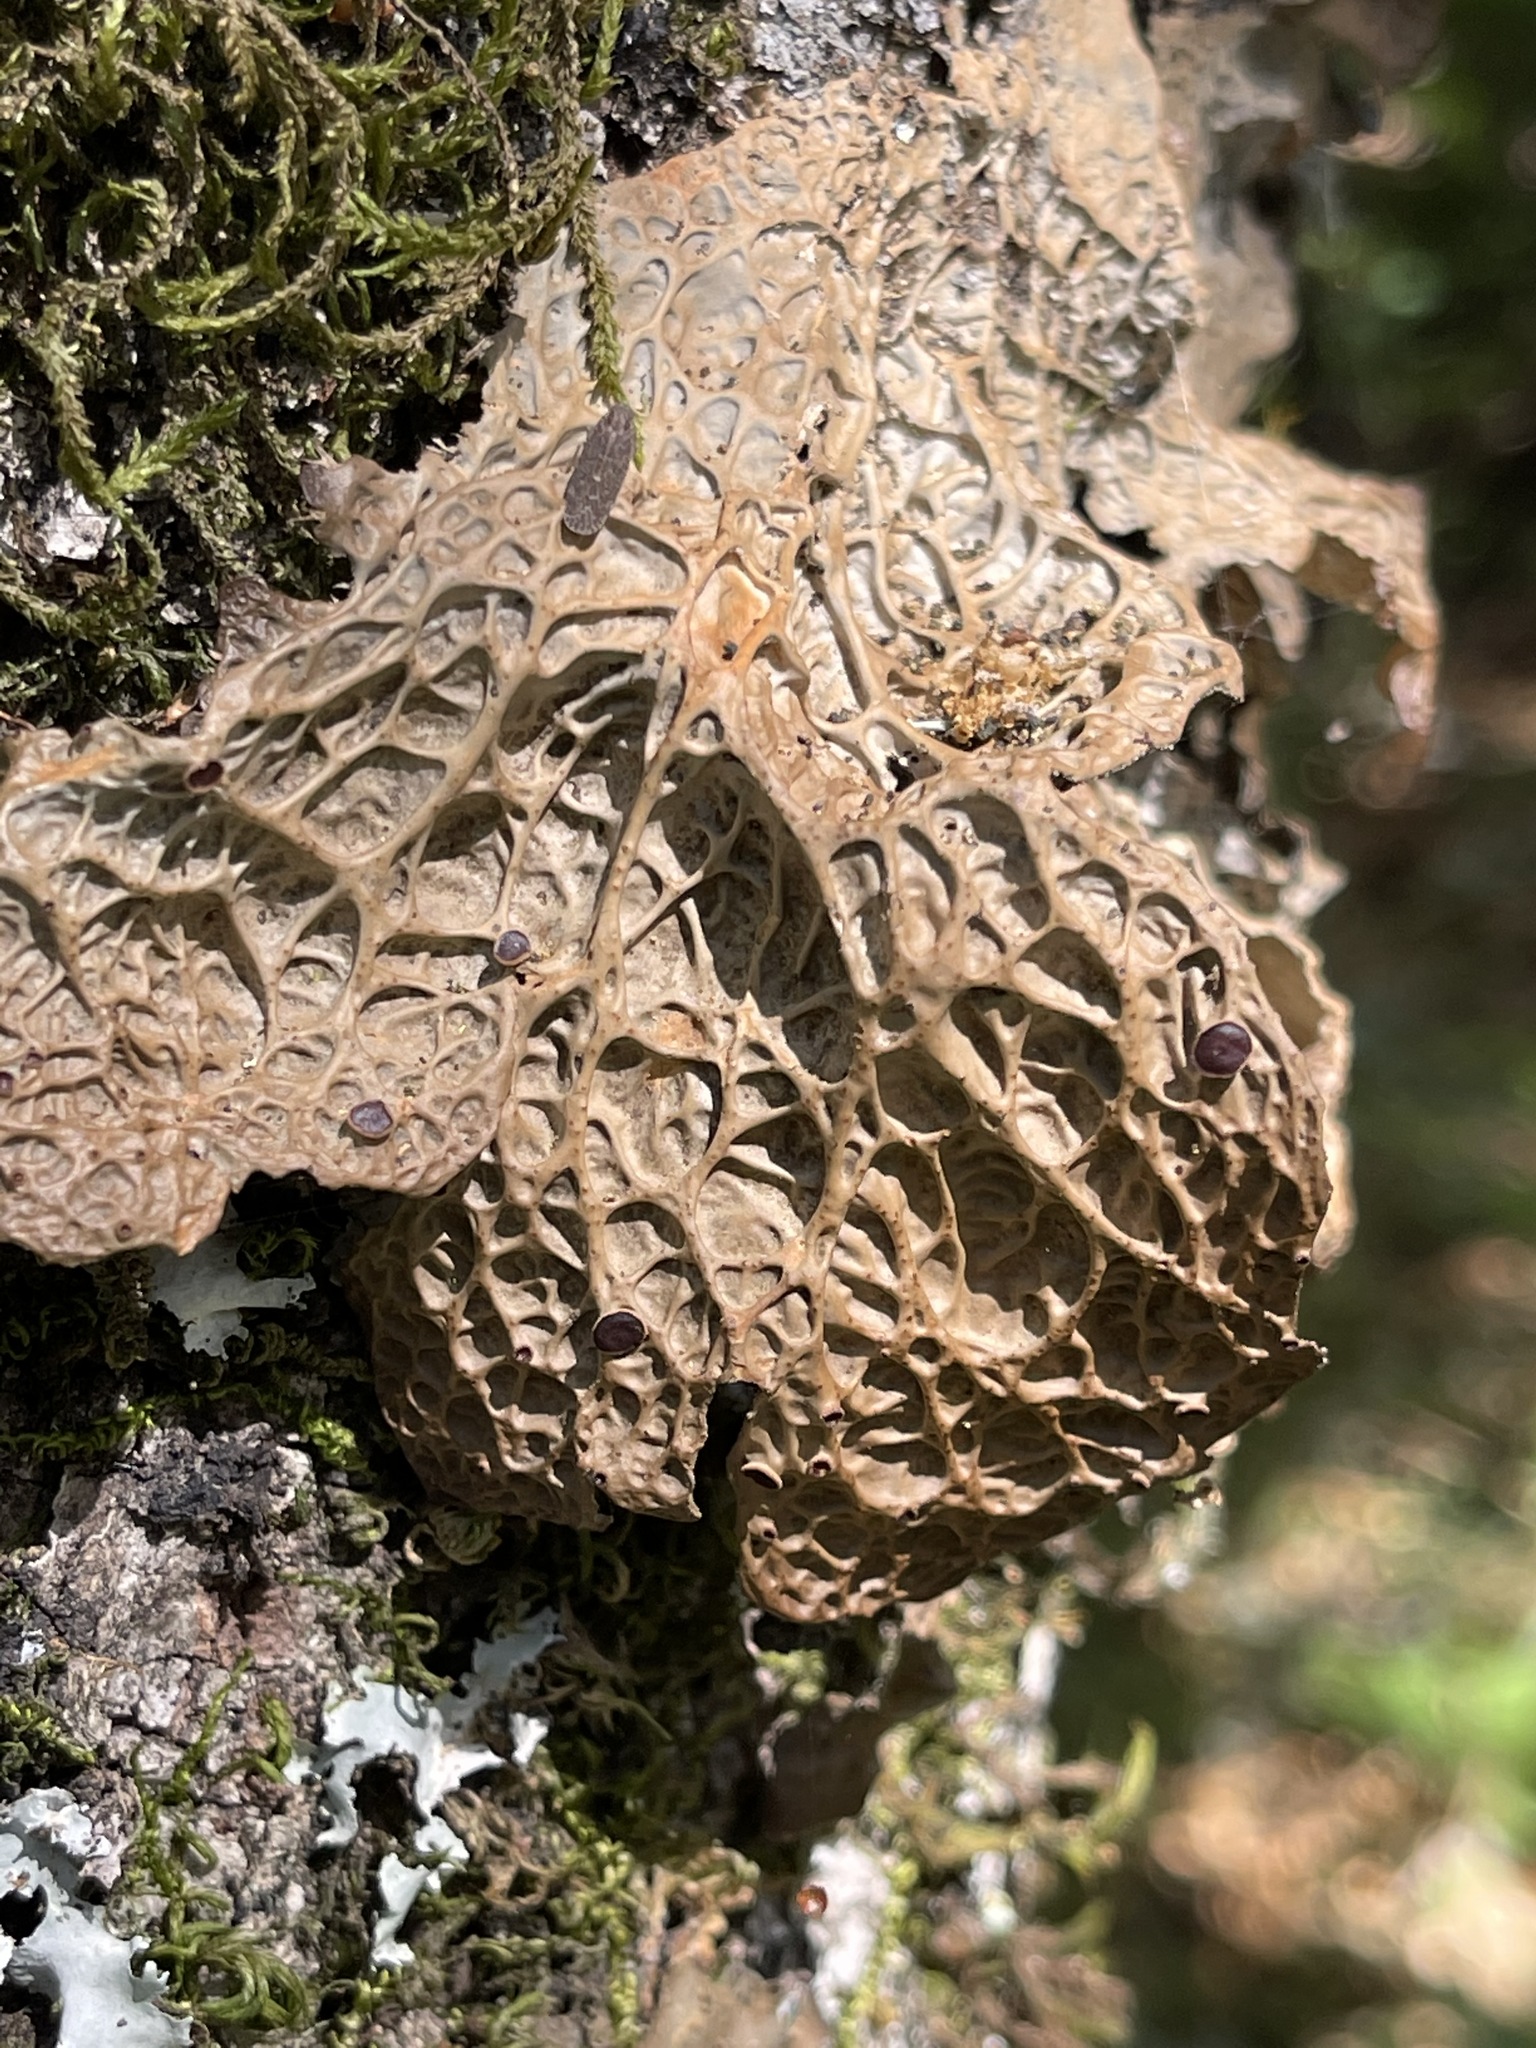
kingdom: Fungi
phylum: Ascomycota
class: Lecanoromycetes
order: Peltigerales
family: Lobariaceae
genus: Lobaria
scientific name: Lobaria anthraspis
